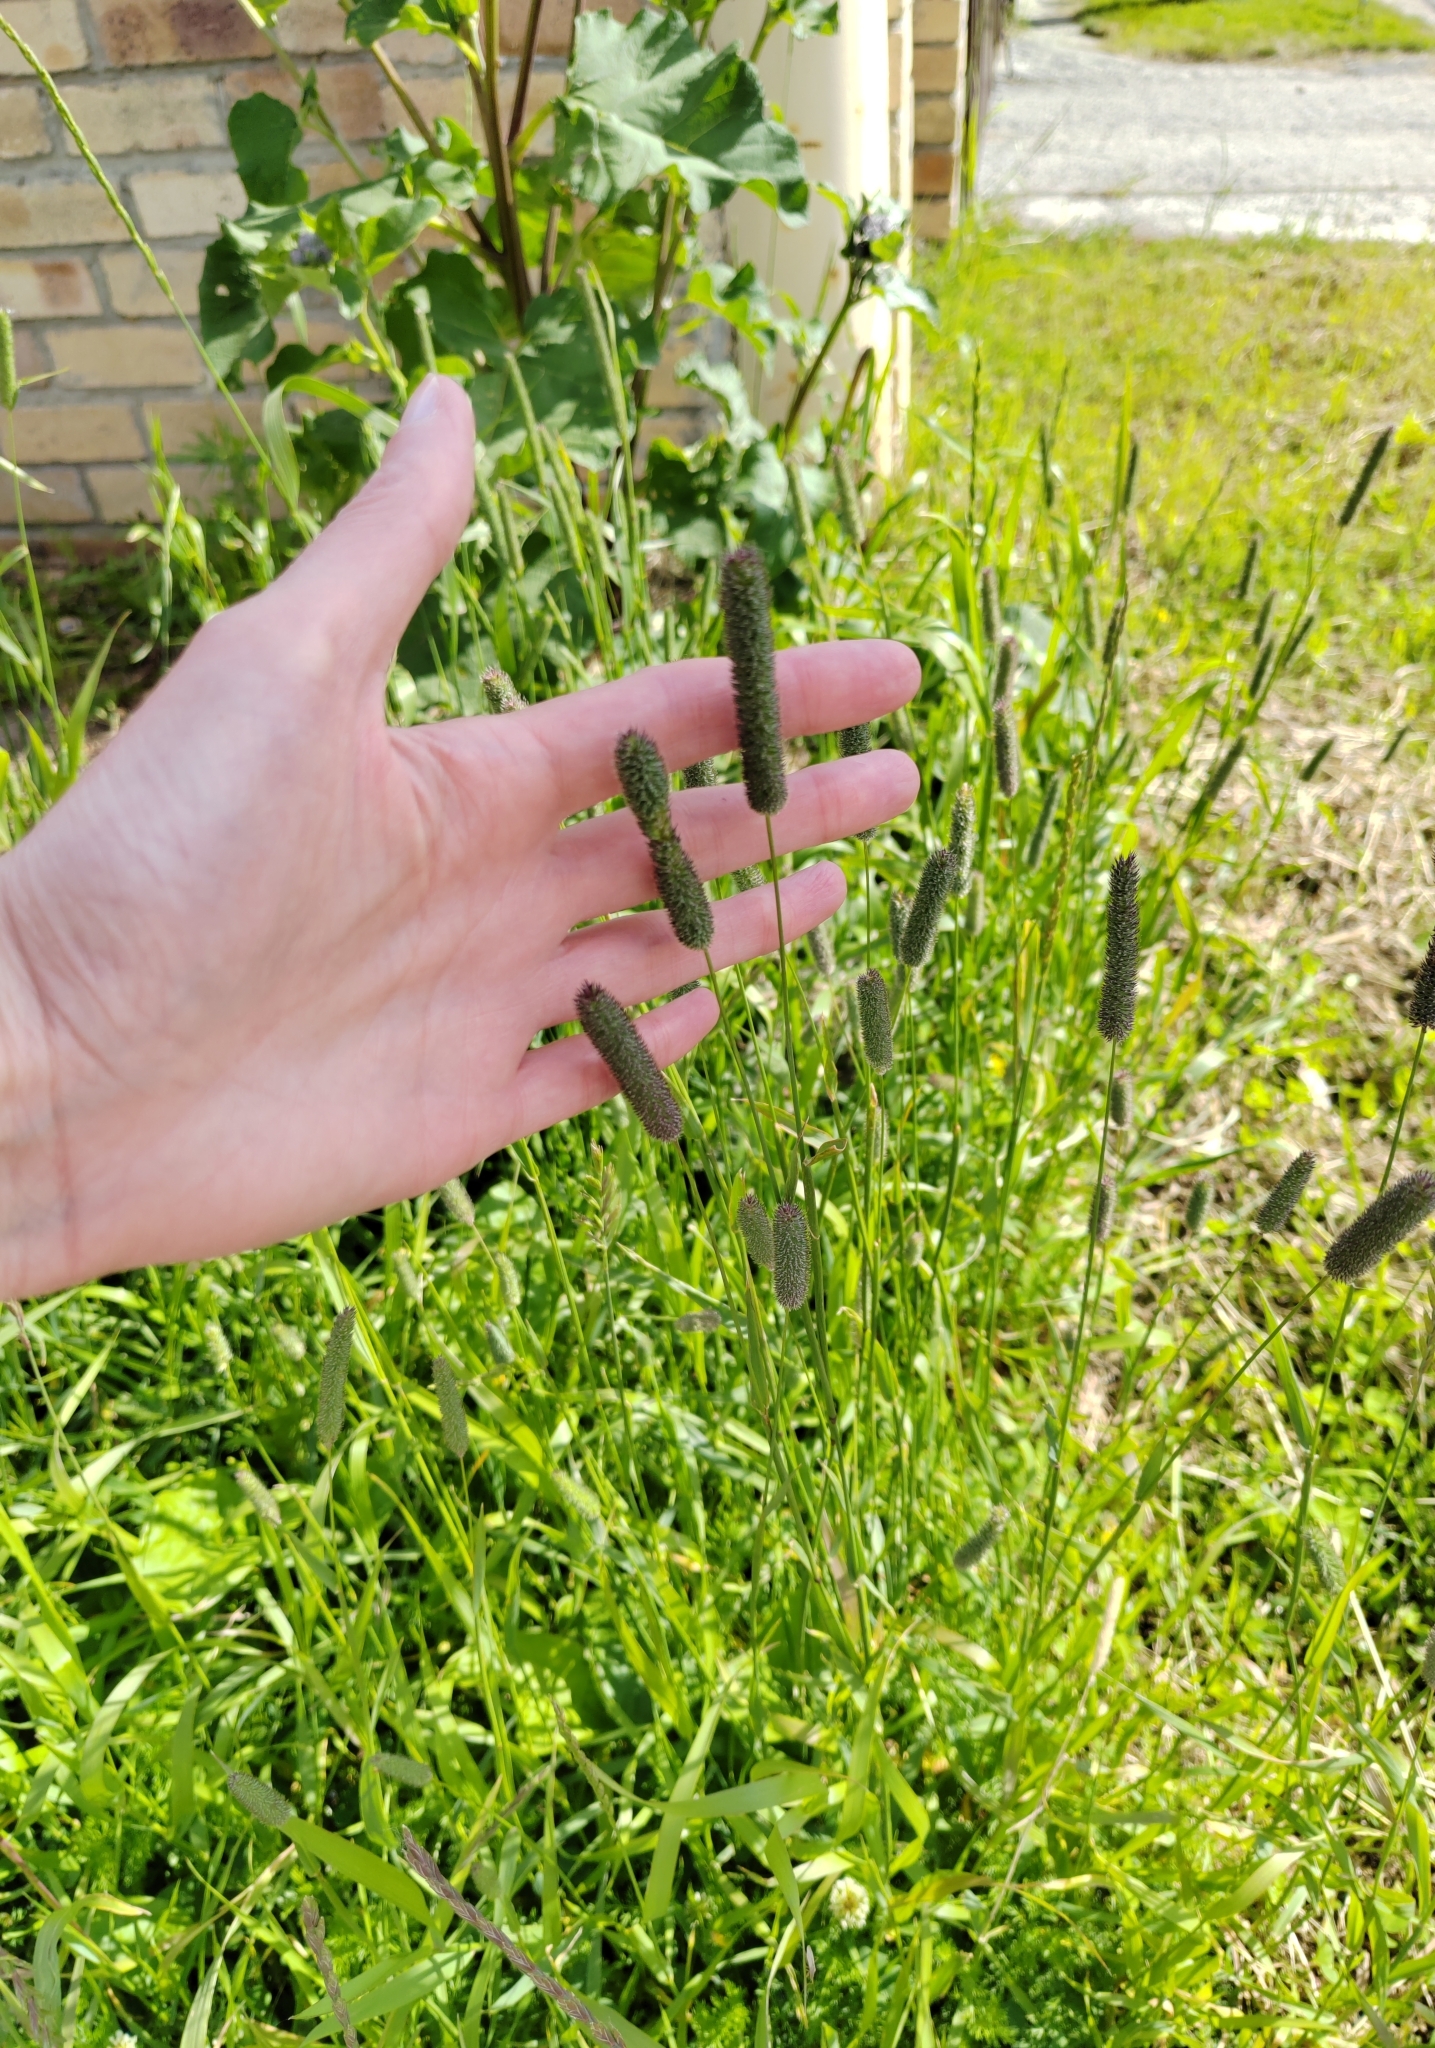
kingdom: Plantae
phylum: Tracheophyta
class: Liliopsida
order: Poales
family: Poaceae
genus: Phleum
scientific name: Phleum pratense
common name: Timothy grass
